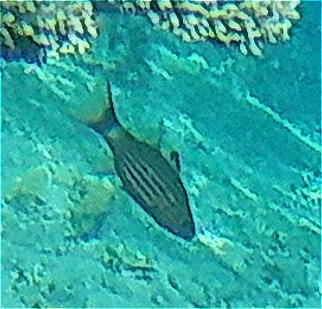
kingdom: Animalia
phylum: Chordata
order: Perciformes
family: Apogonidae
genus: Cheilodipterus
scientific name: Cheilodipterus macrodon
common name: Eight-lined cardinalfish
